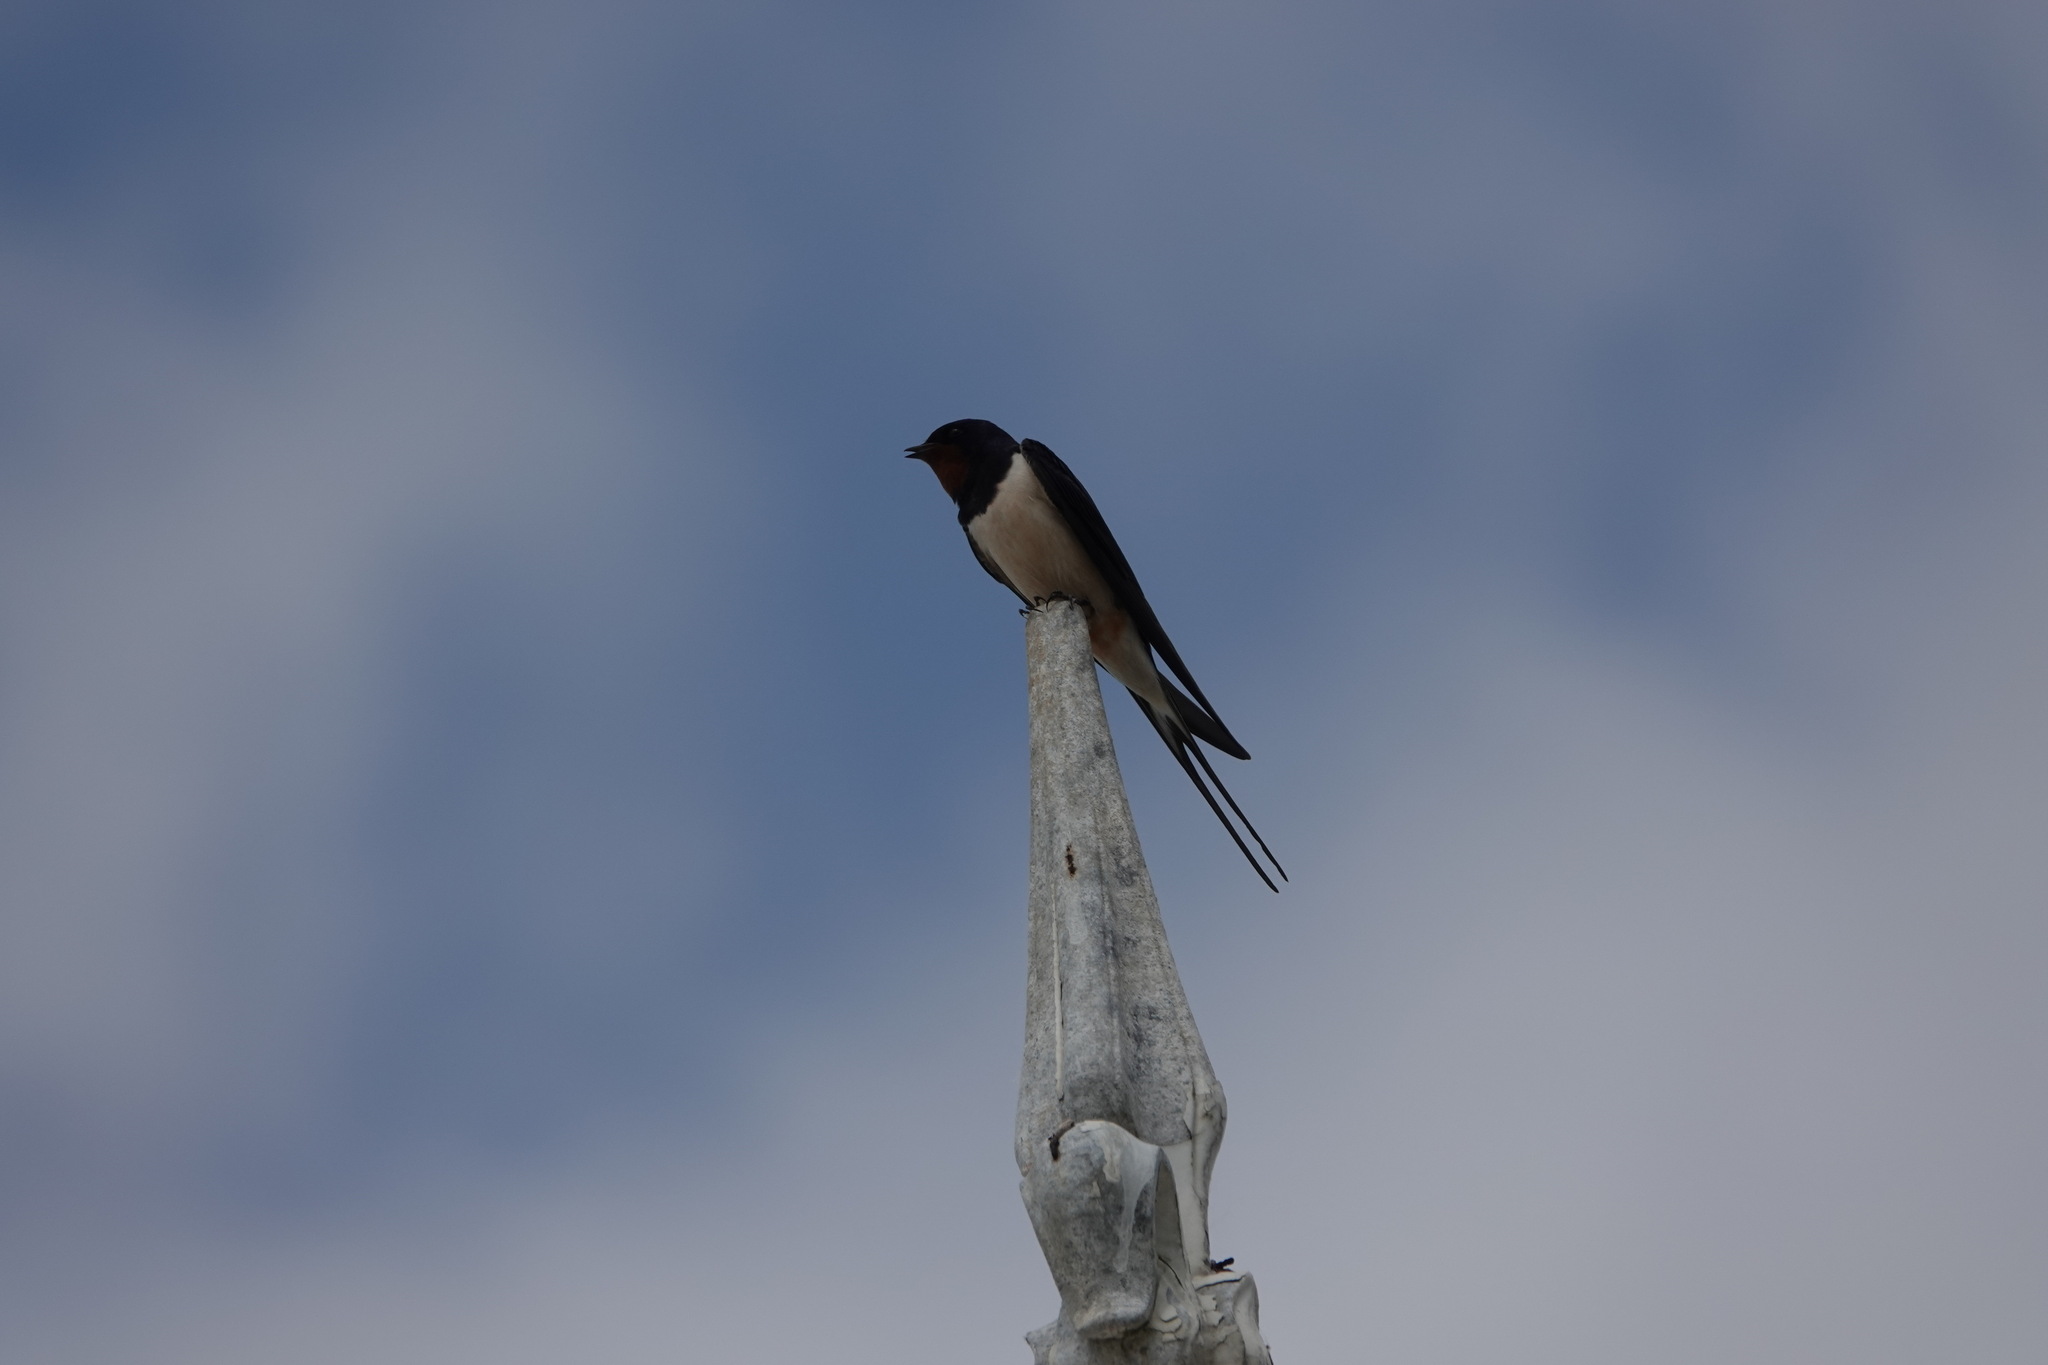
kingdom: Animalia
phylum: Chordata
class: Aves
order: Passeriformes
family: Hirundinidae
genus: Hirundo
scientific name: Hirundo rustica
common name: Barn swallow
